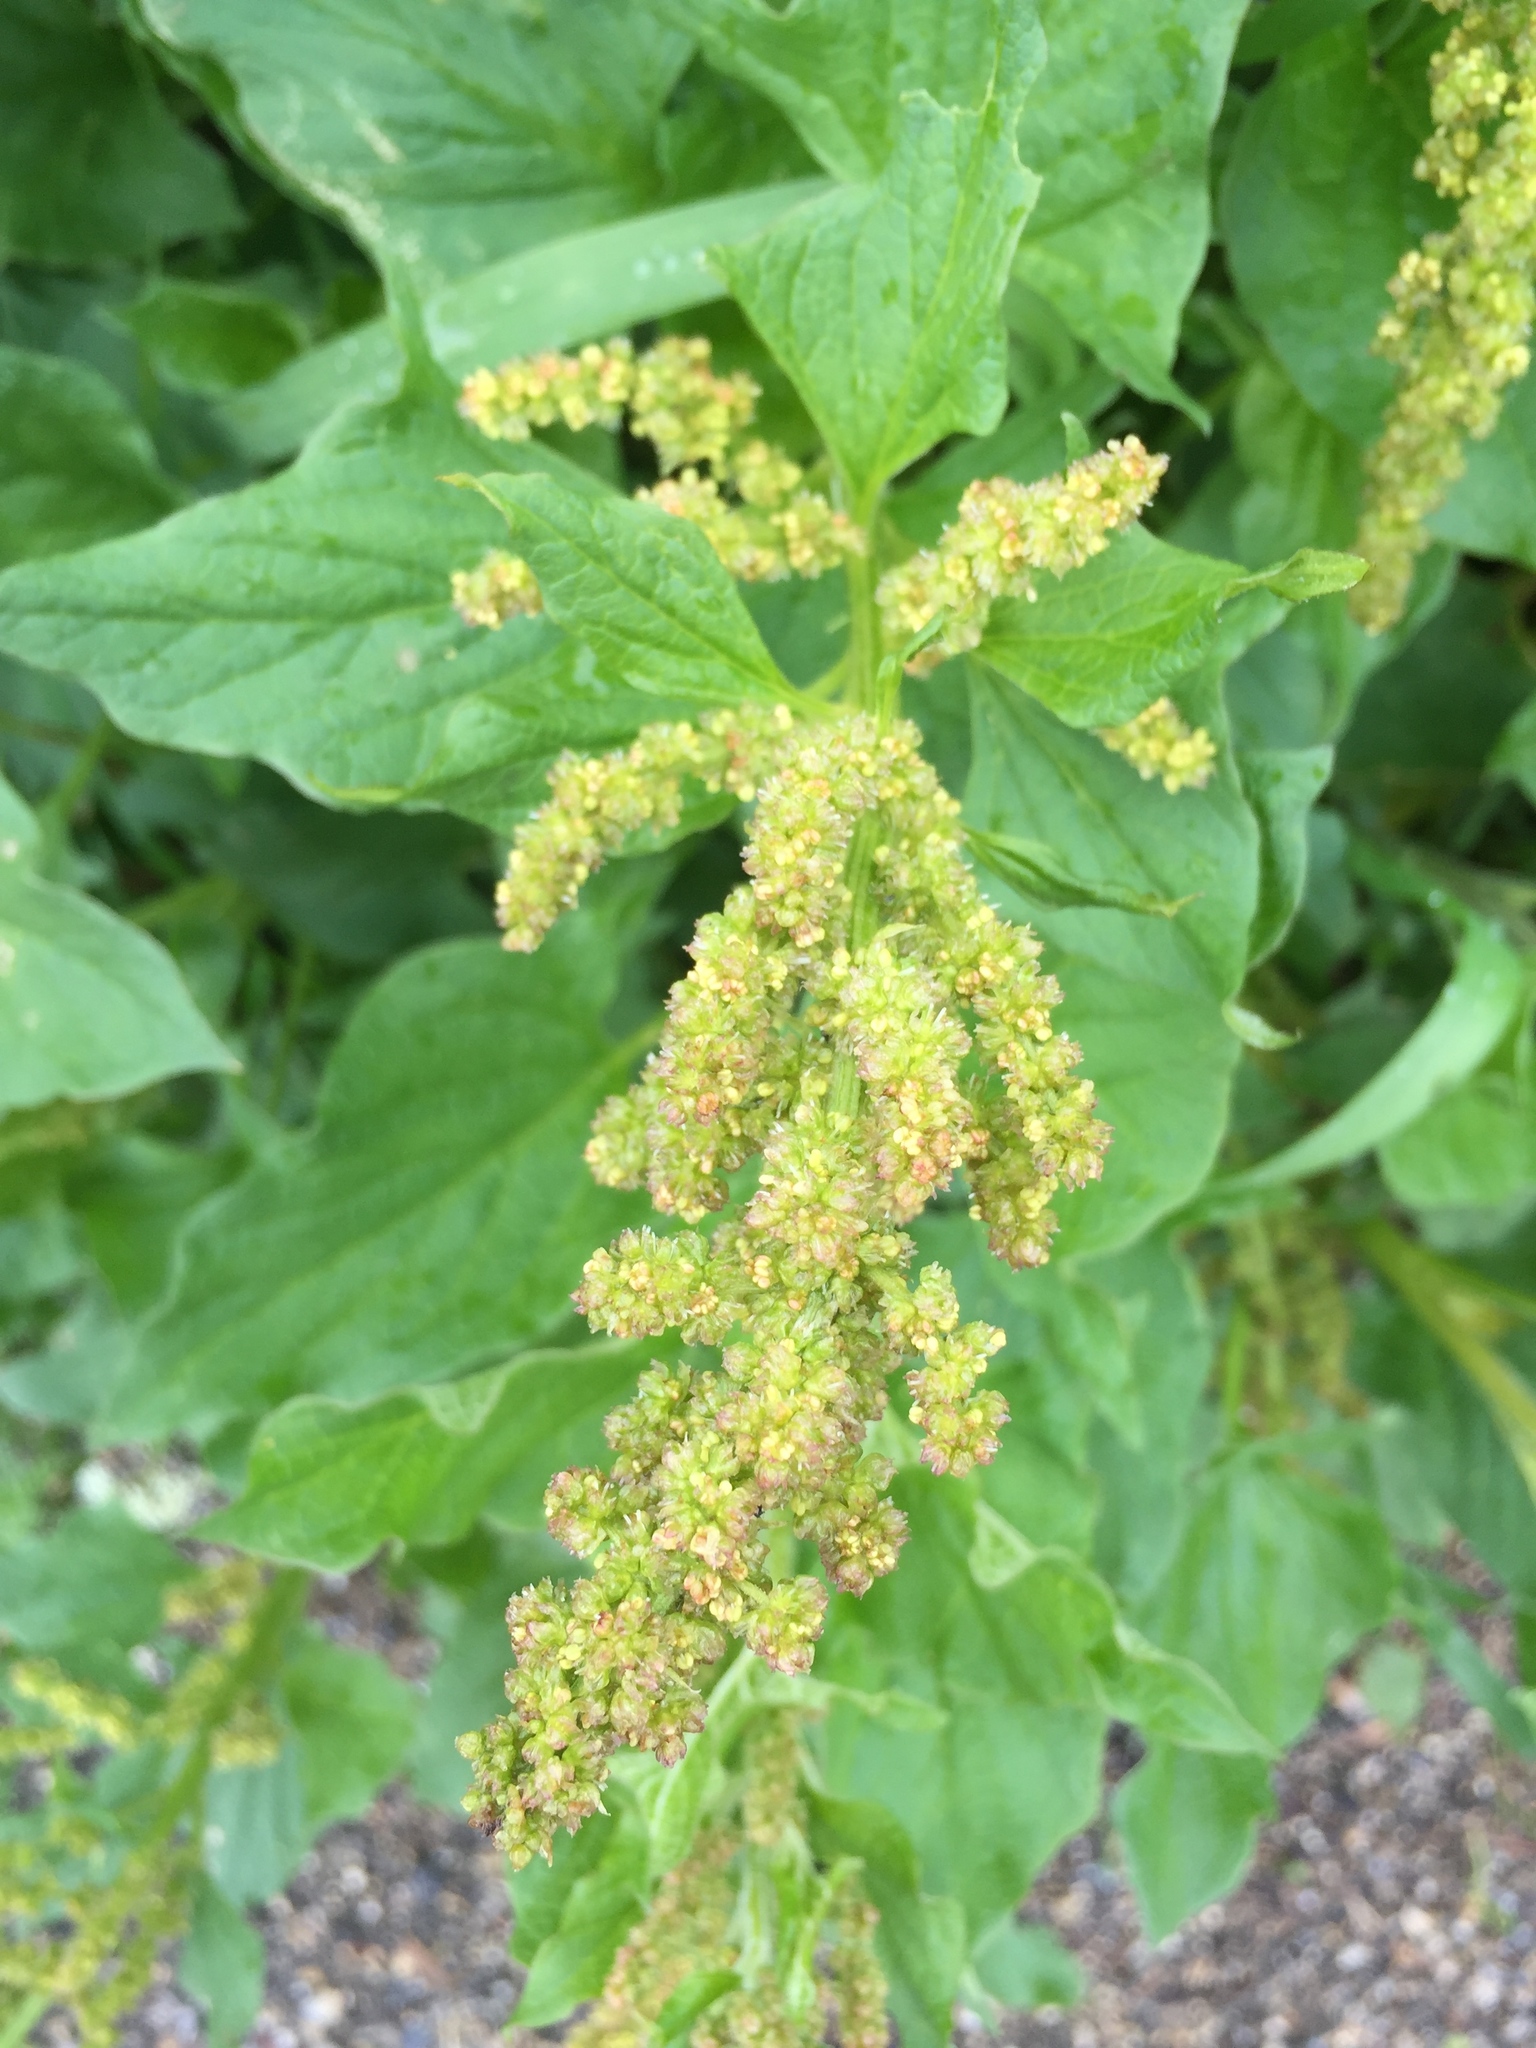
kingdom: Plantae
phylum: Tracheophyta
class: Magnoliopsida
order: Caryophyllales
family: Amaranthaceae
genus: Blitum
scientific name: Blitum bonus-henricus
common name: Good king henry
